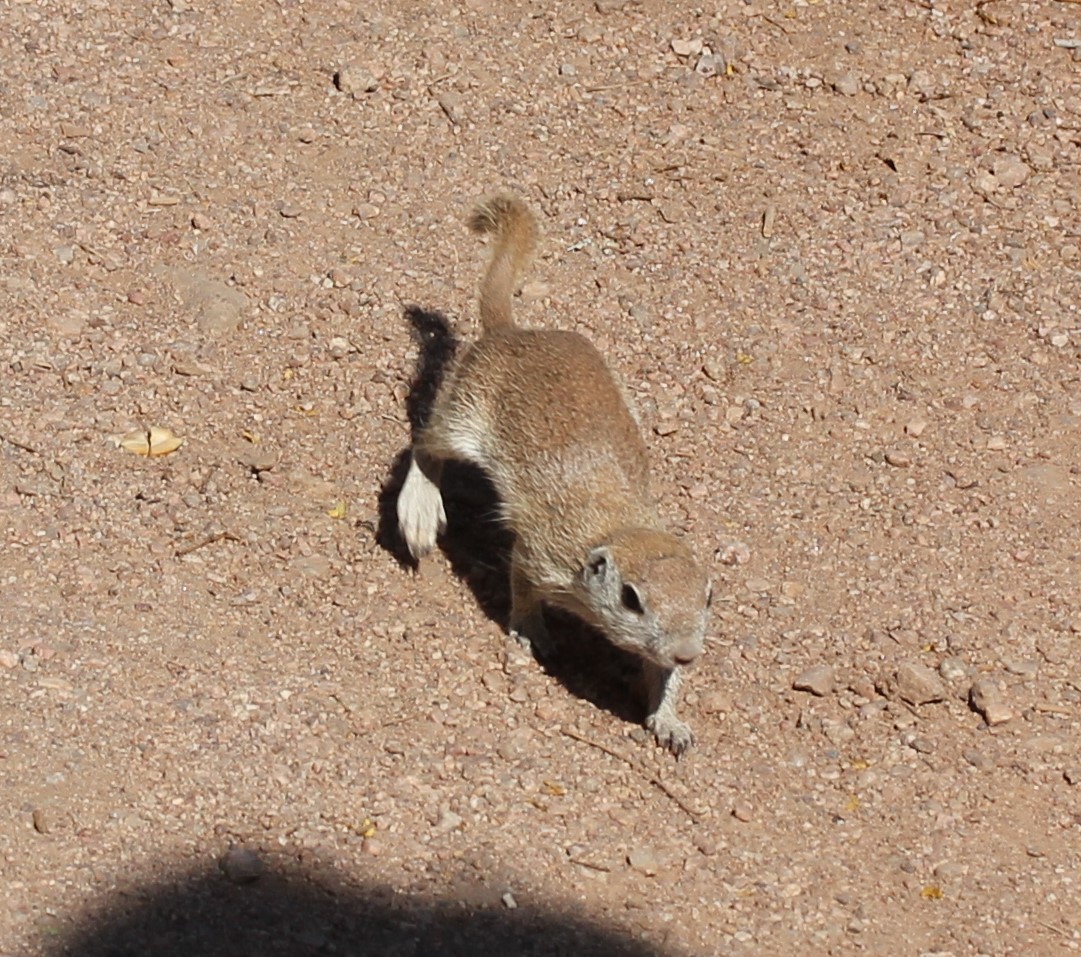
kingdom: Animalia
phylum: Chordata
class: Mammalia
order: Rodentia
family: Sciuridae
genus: Xerospermophilus
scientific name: Xerospermophilus tereticaudus
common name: Round-tailed ground squirrel
